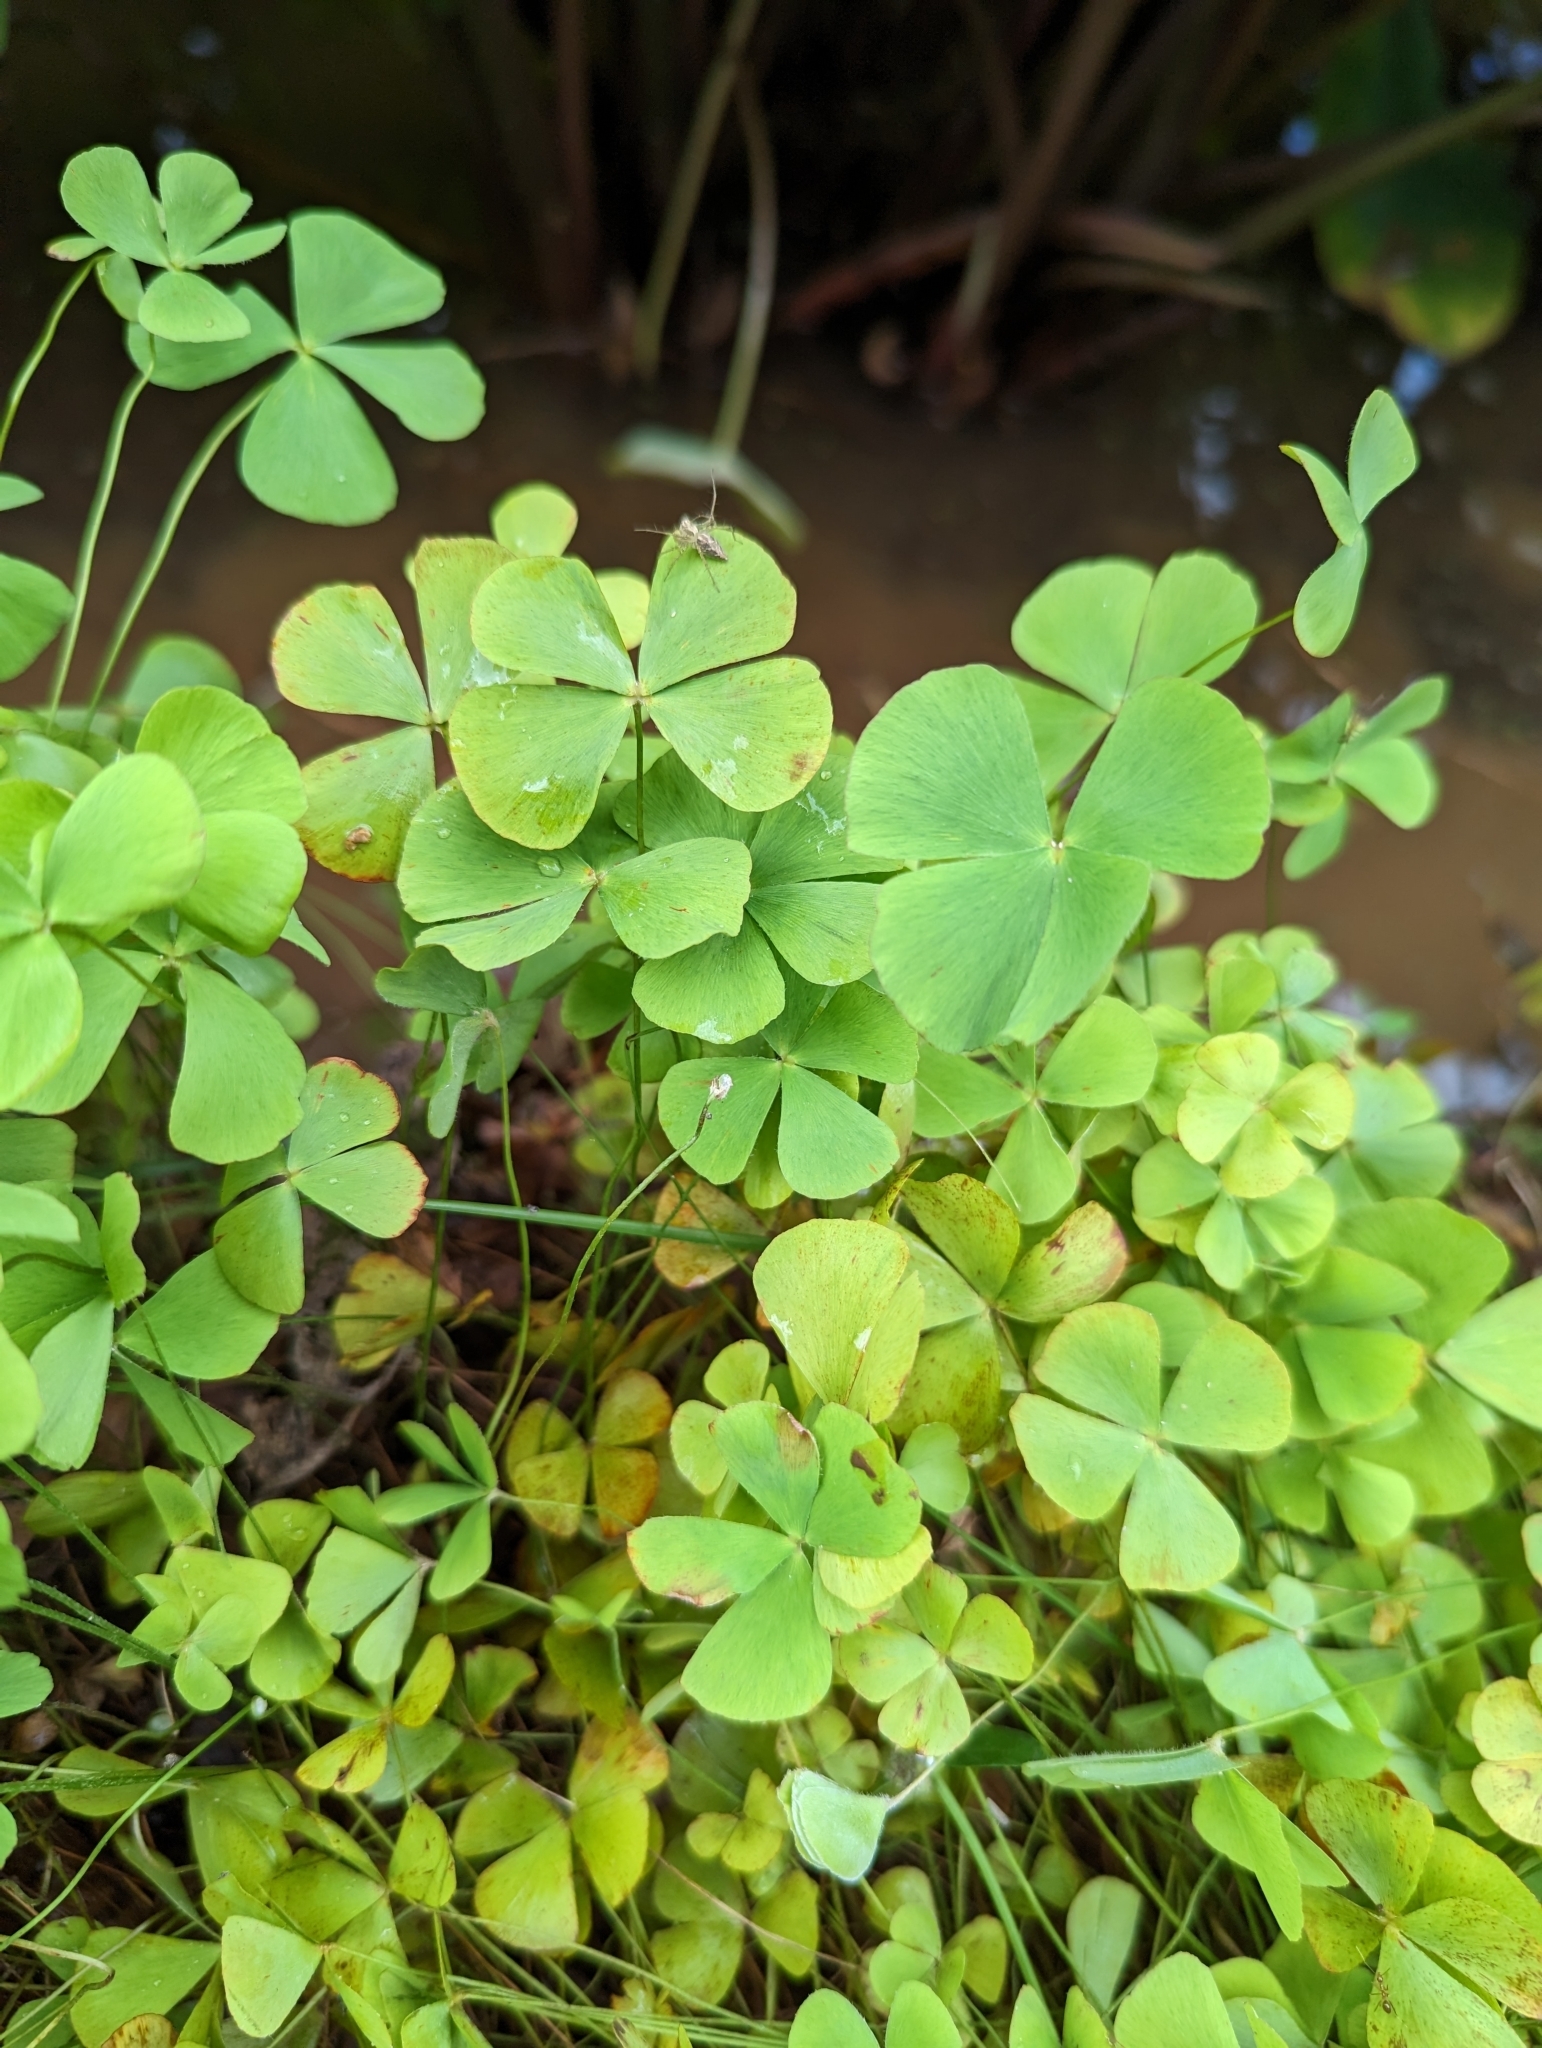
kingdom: Plantae
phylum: Tracheophyta
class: Polypodiopsida
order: Salviniales
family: Marsileaceae
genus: Marsilea
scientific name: Marsilea villosa
